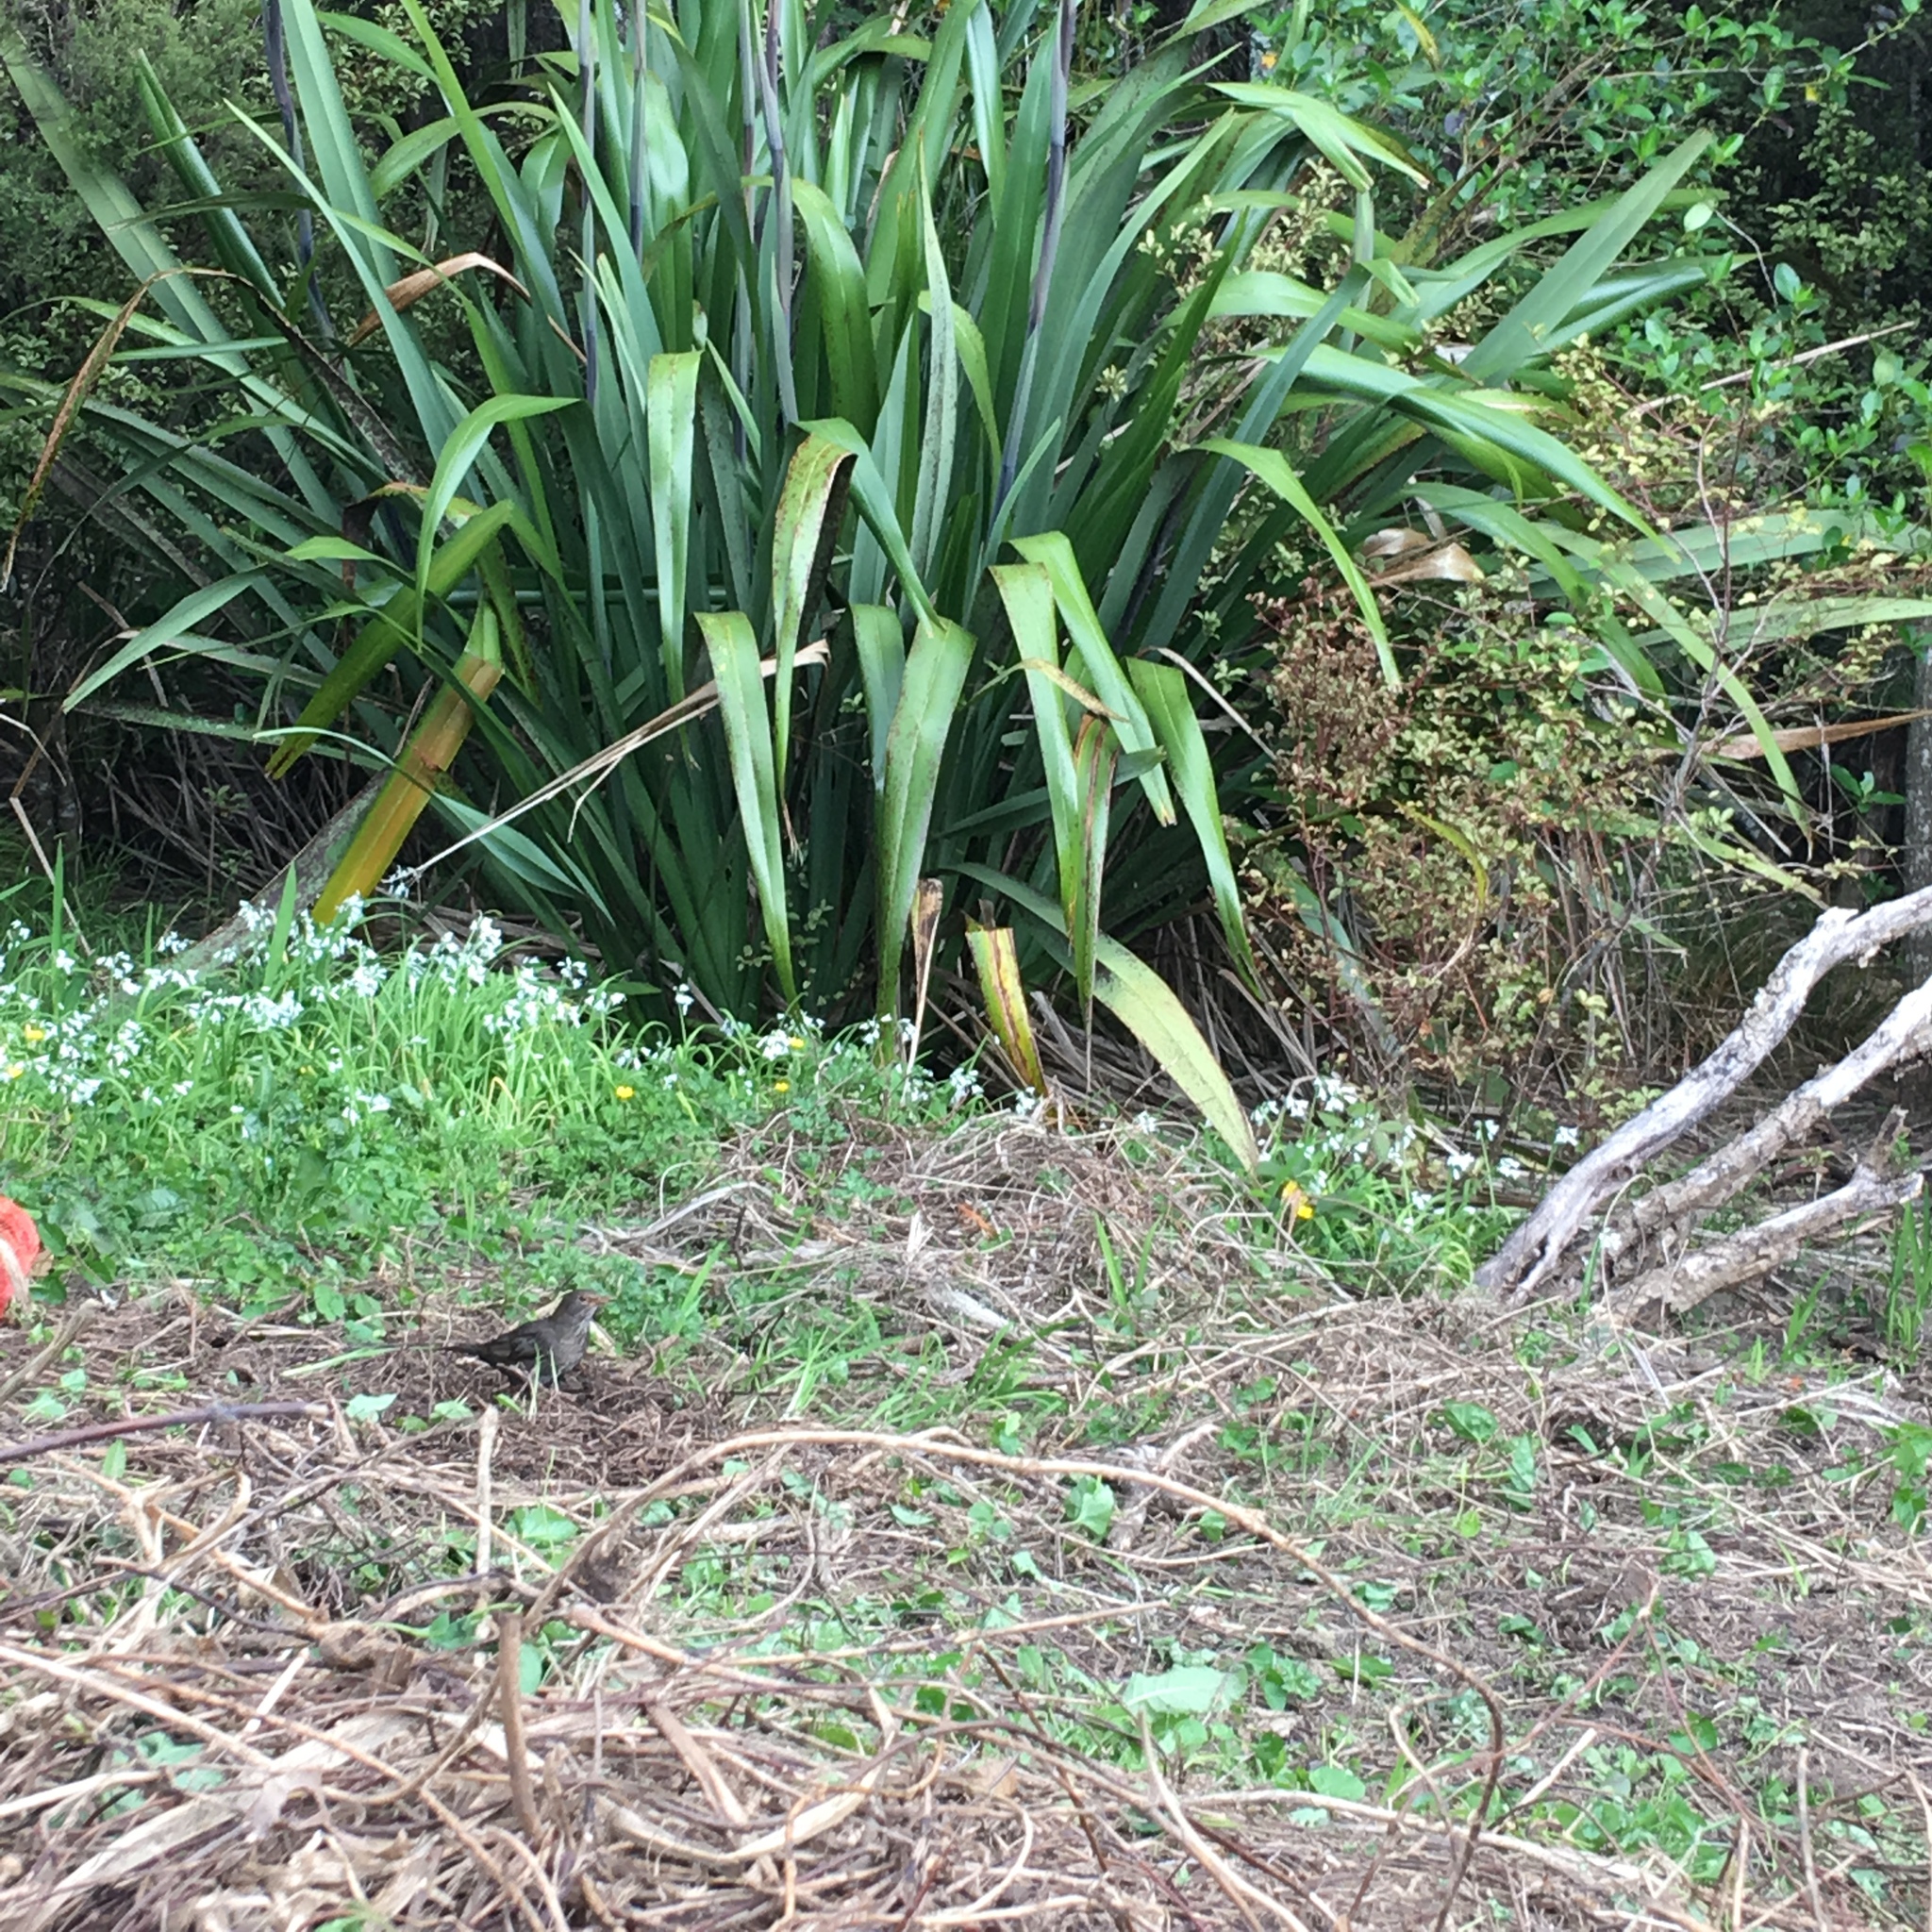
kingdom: Animalia
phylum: Chordata
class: Aves
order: Passeriformes
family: Turdidae
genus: Turdus
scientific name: Turdus merula
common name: Common blackbird
